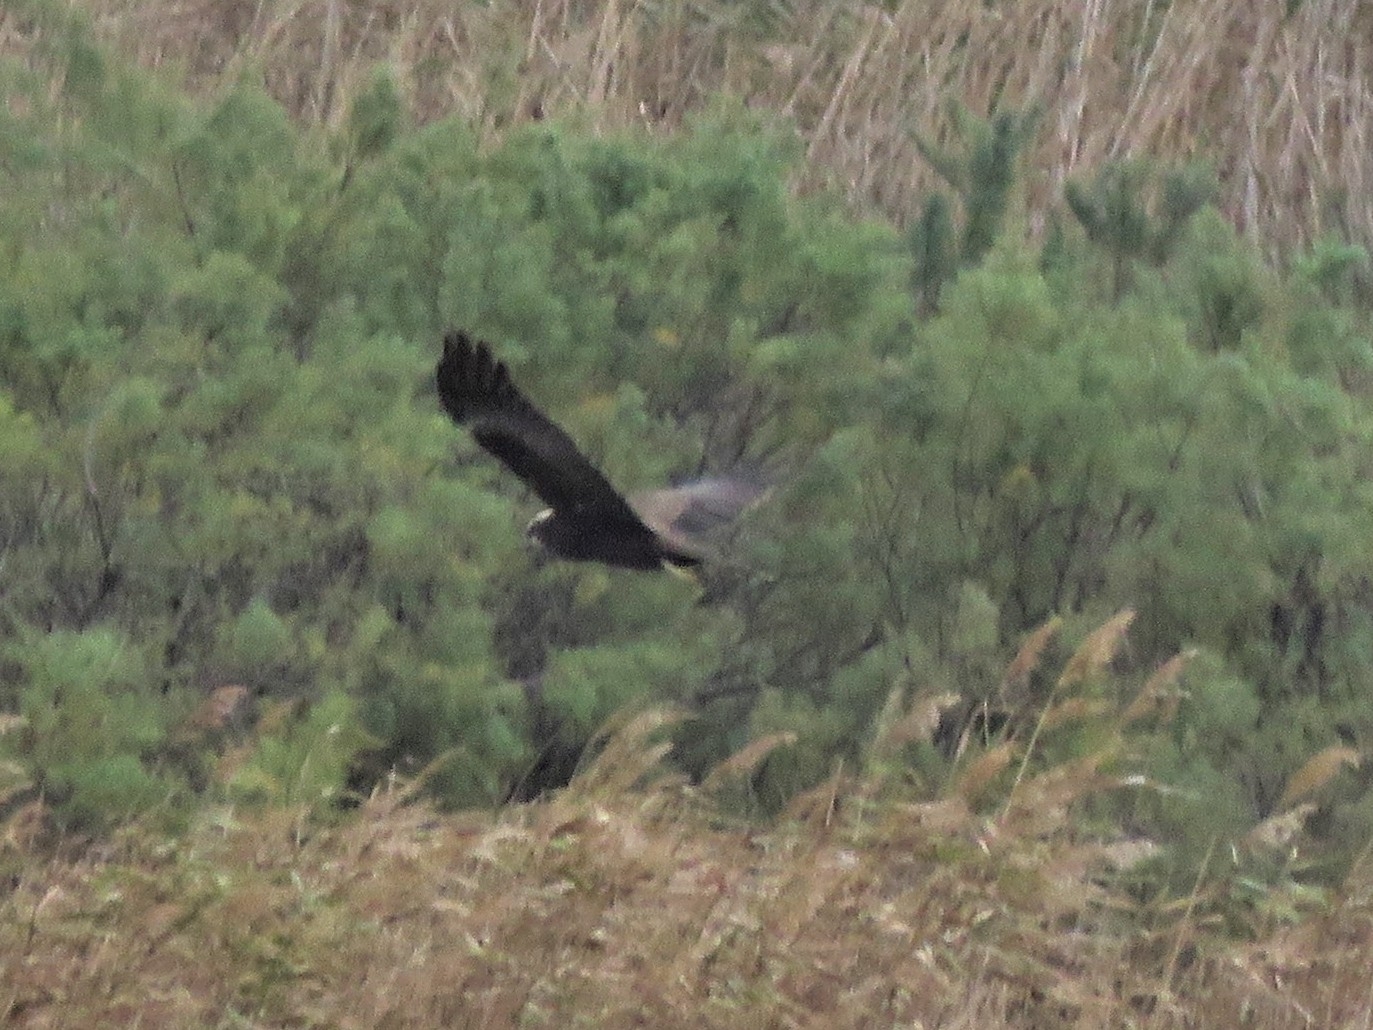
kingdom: Animalia
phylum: Chordata
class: Aves
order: Accipitriformes
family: Accipitridae
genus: Circus
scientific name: Circus aeruginosus
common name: Western marsh harrier
